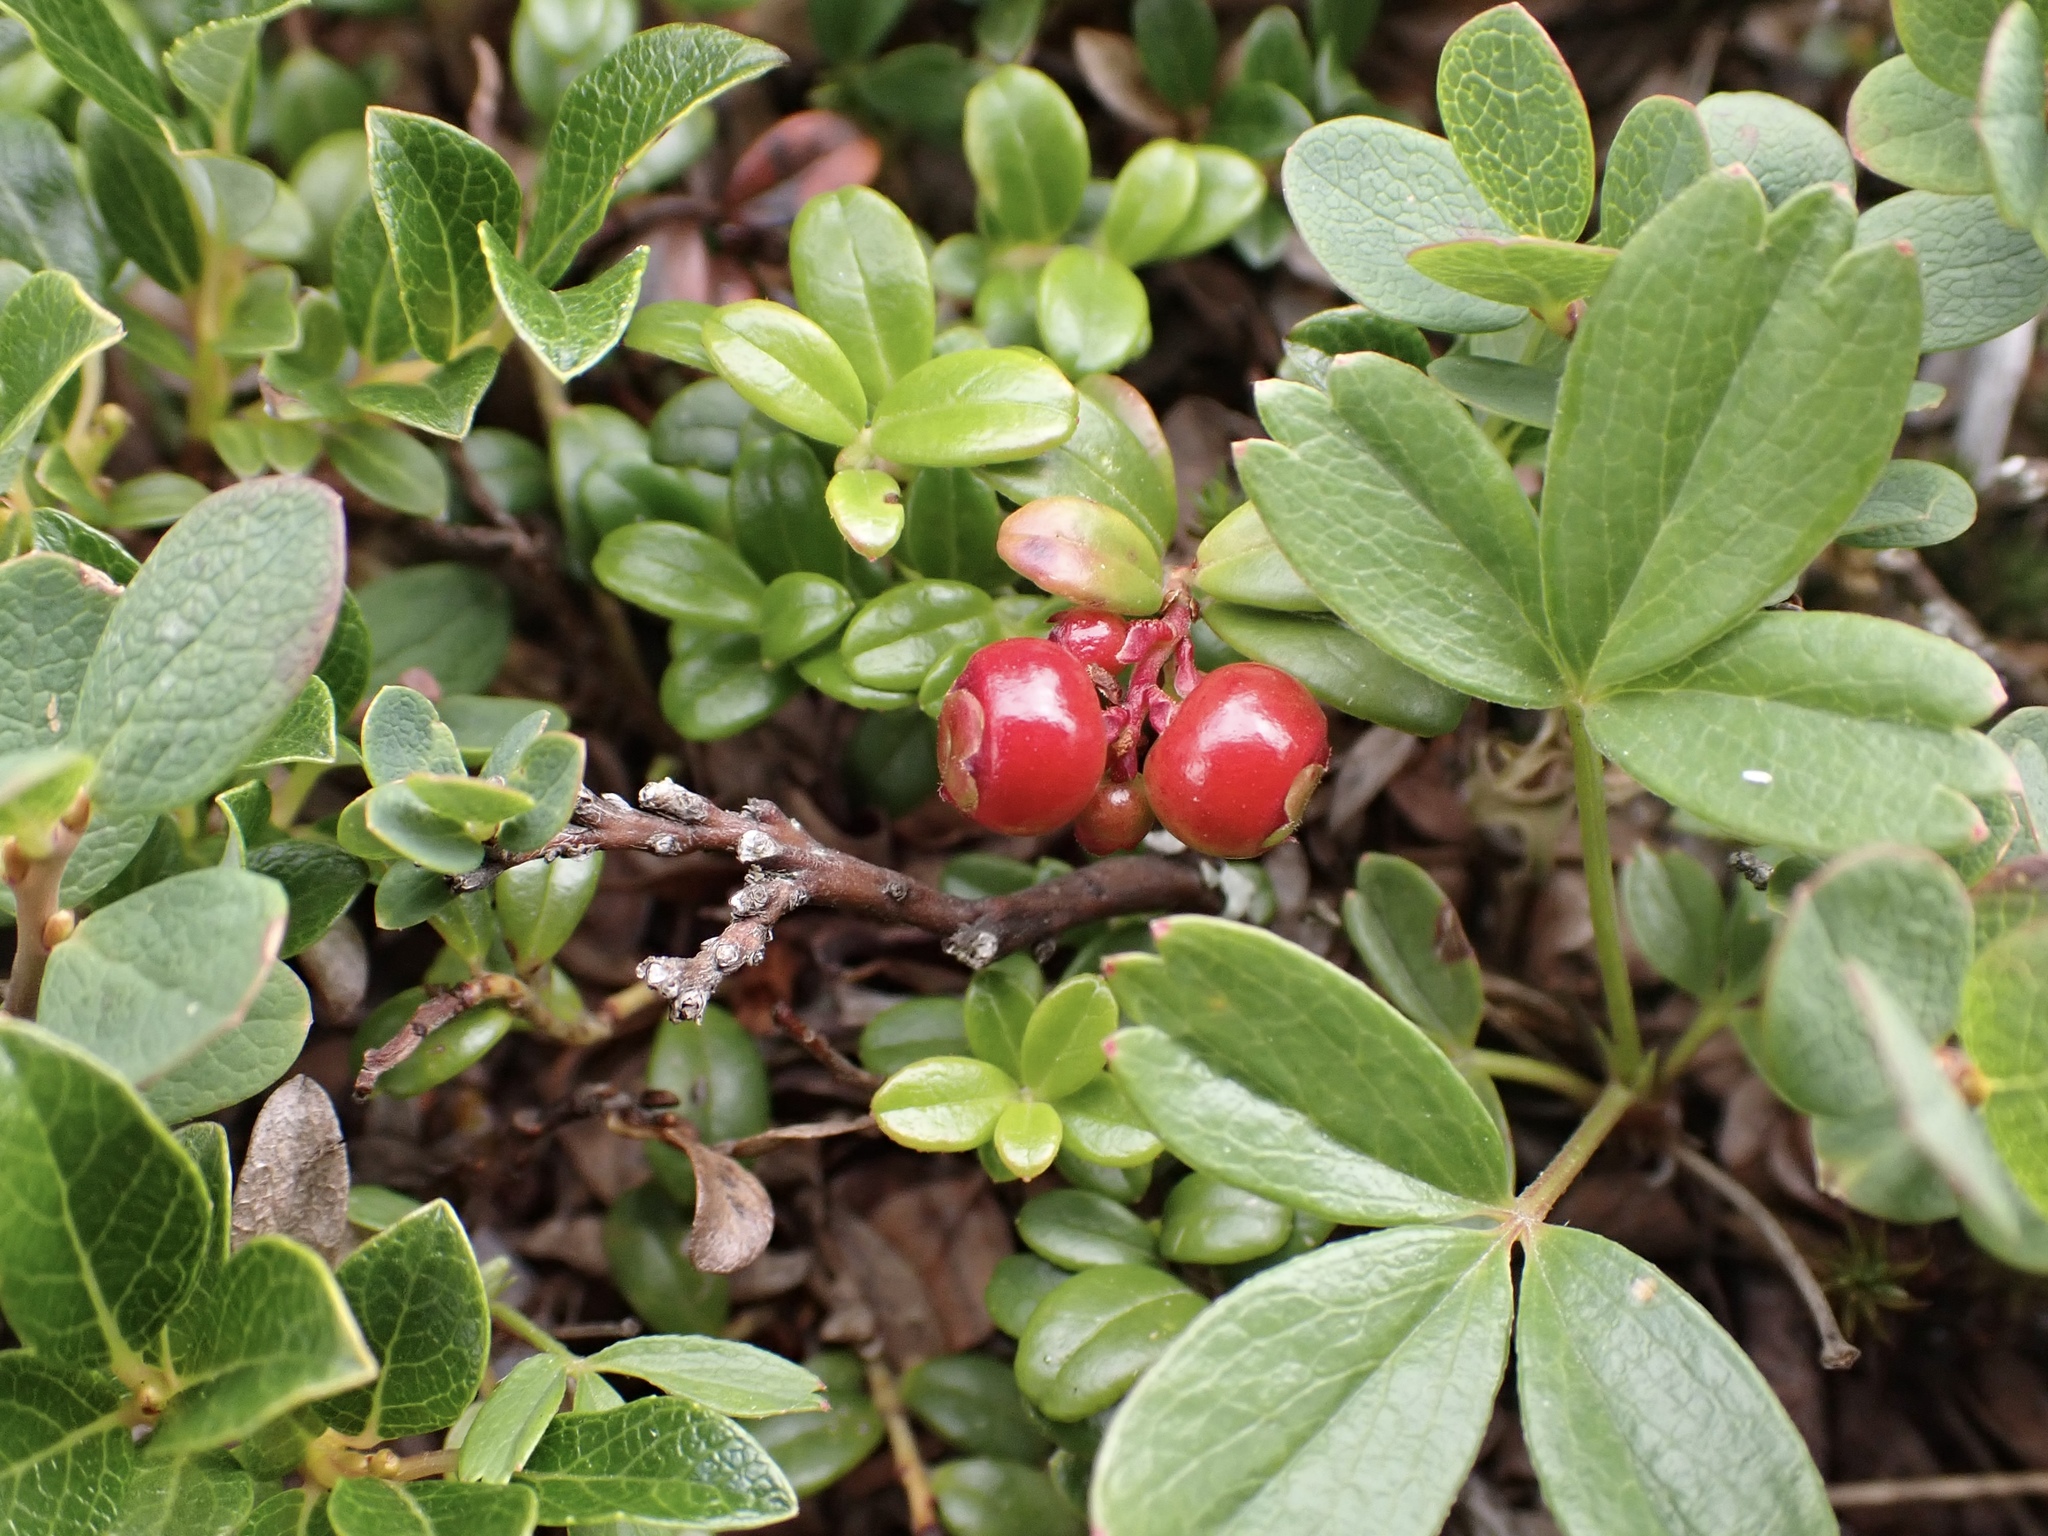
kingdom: Plantae
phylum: Tracheophyta
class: Magnoliopsida
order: Ericales
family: Ericaceae
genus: Vaccinium
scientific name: Vaccinium vitis-idaea
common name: Cowberry
